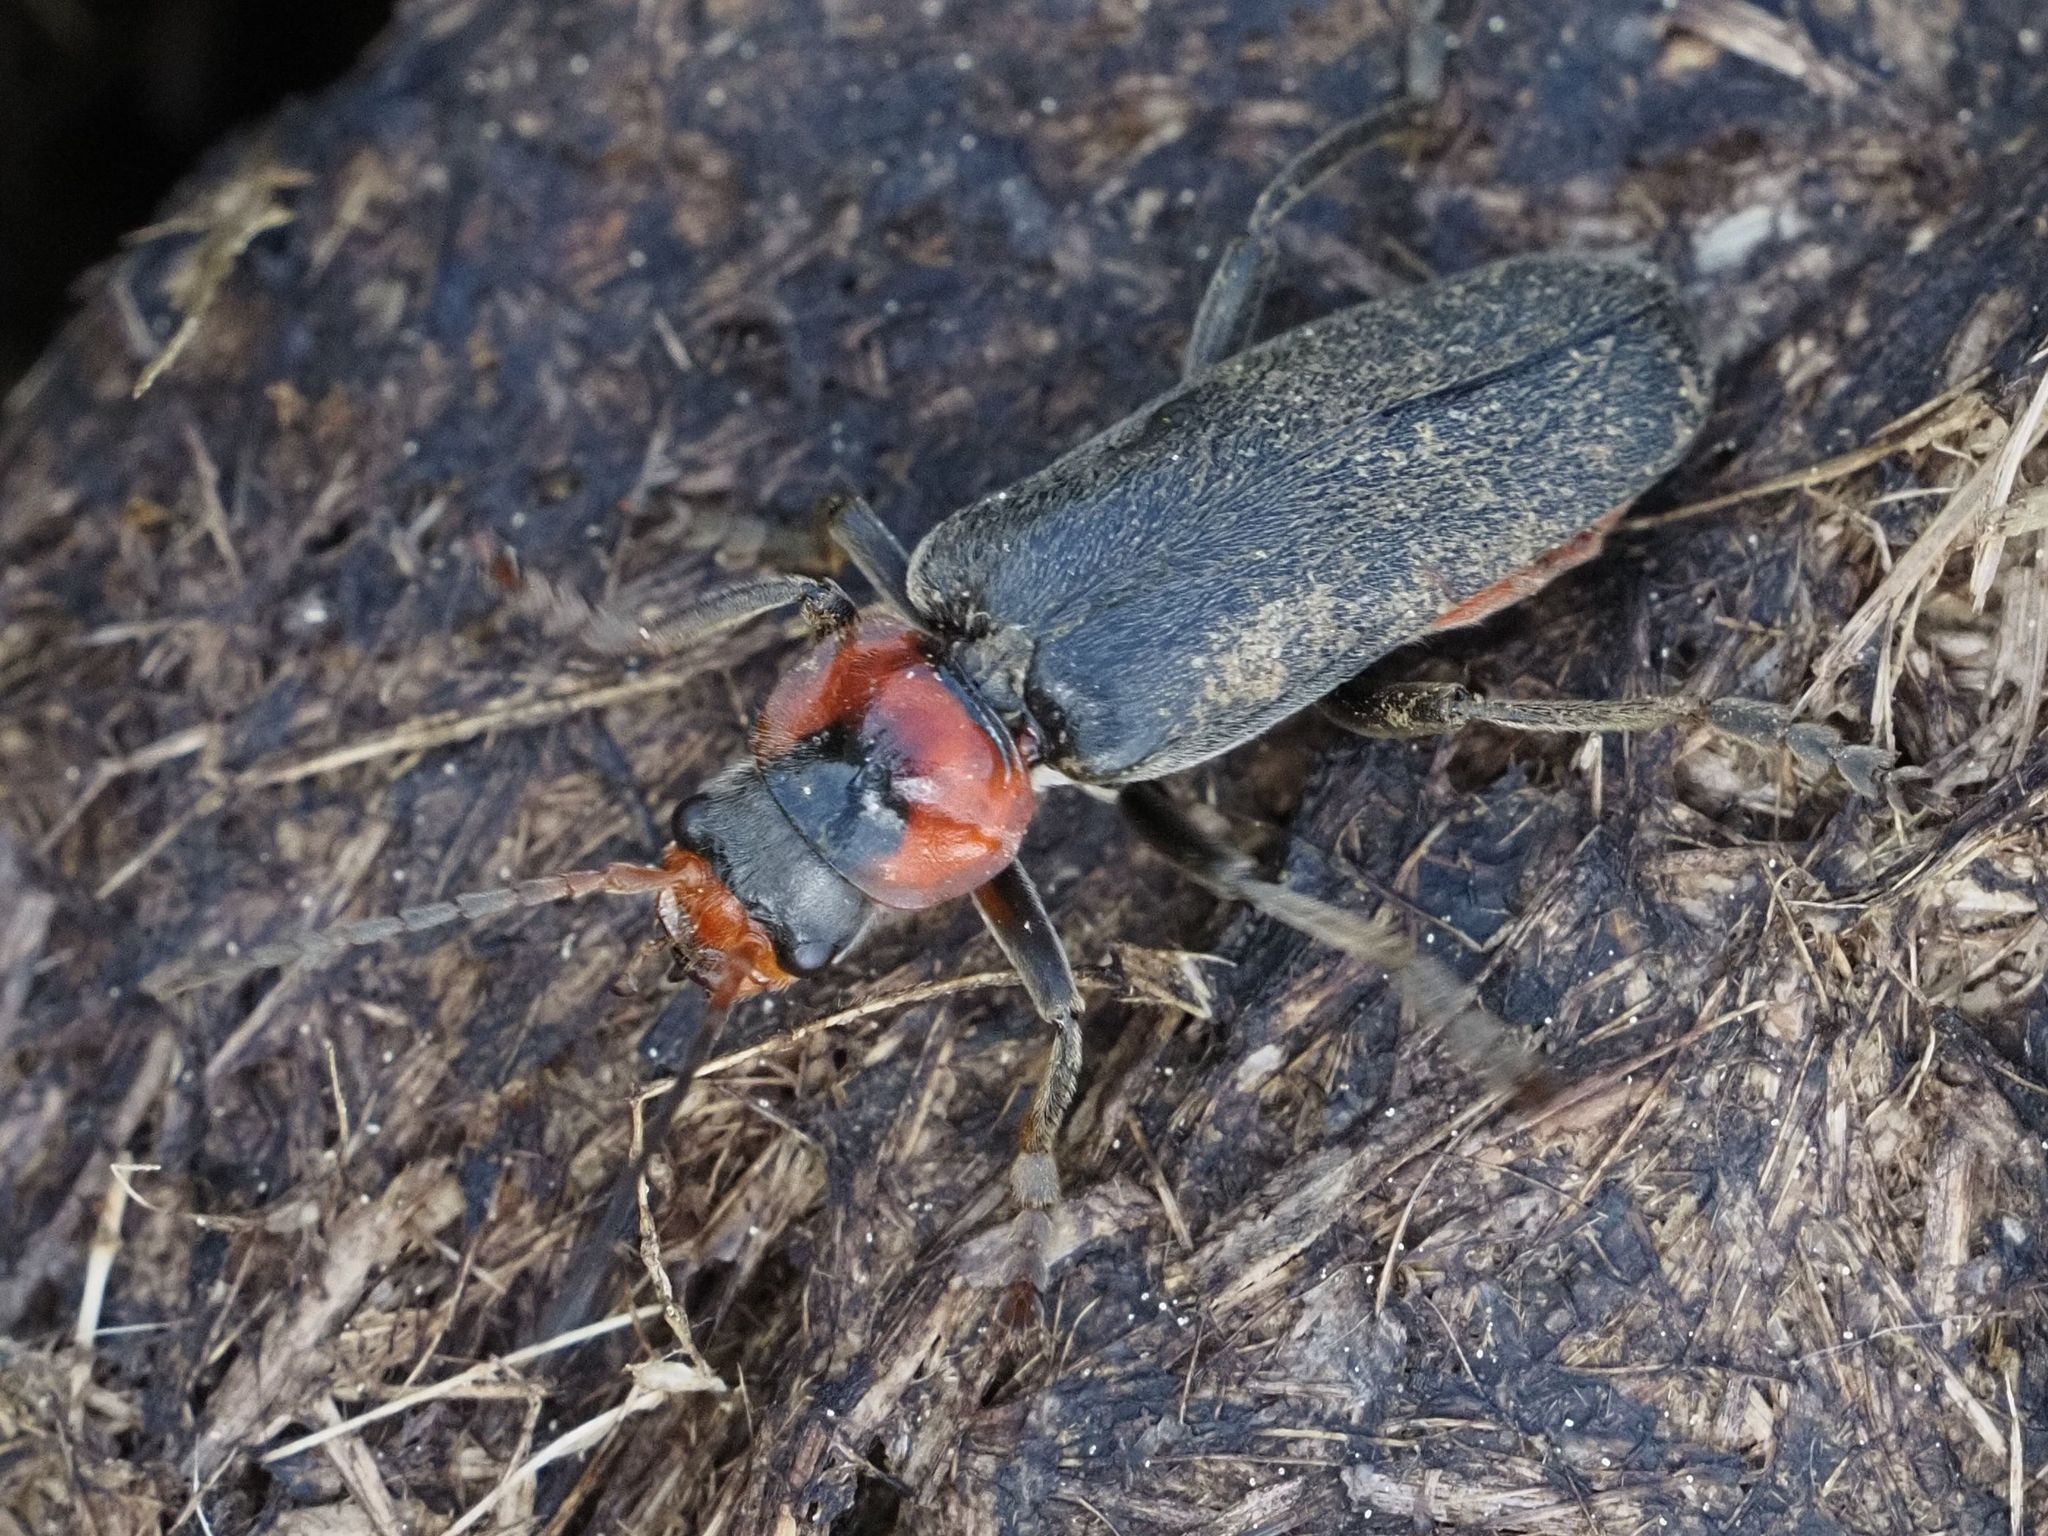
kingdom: Animalia
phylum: Arthropoda
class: Insecta
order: Coleoptera
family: Cantharidae
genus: Cantharis
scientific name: Cantharis fusca
